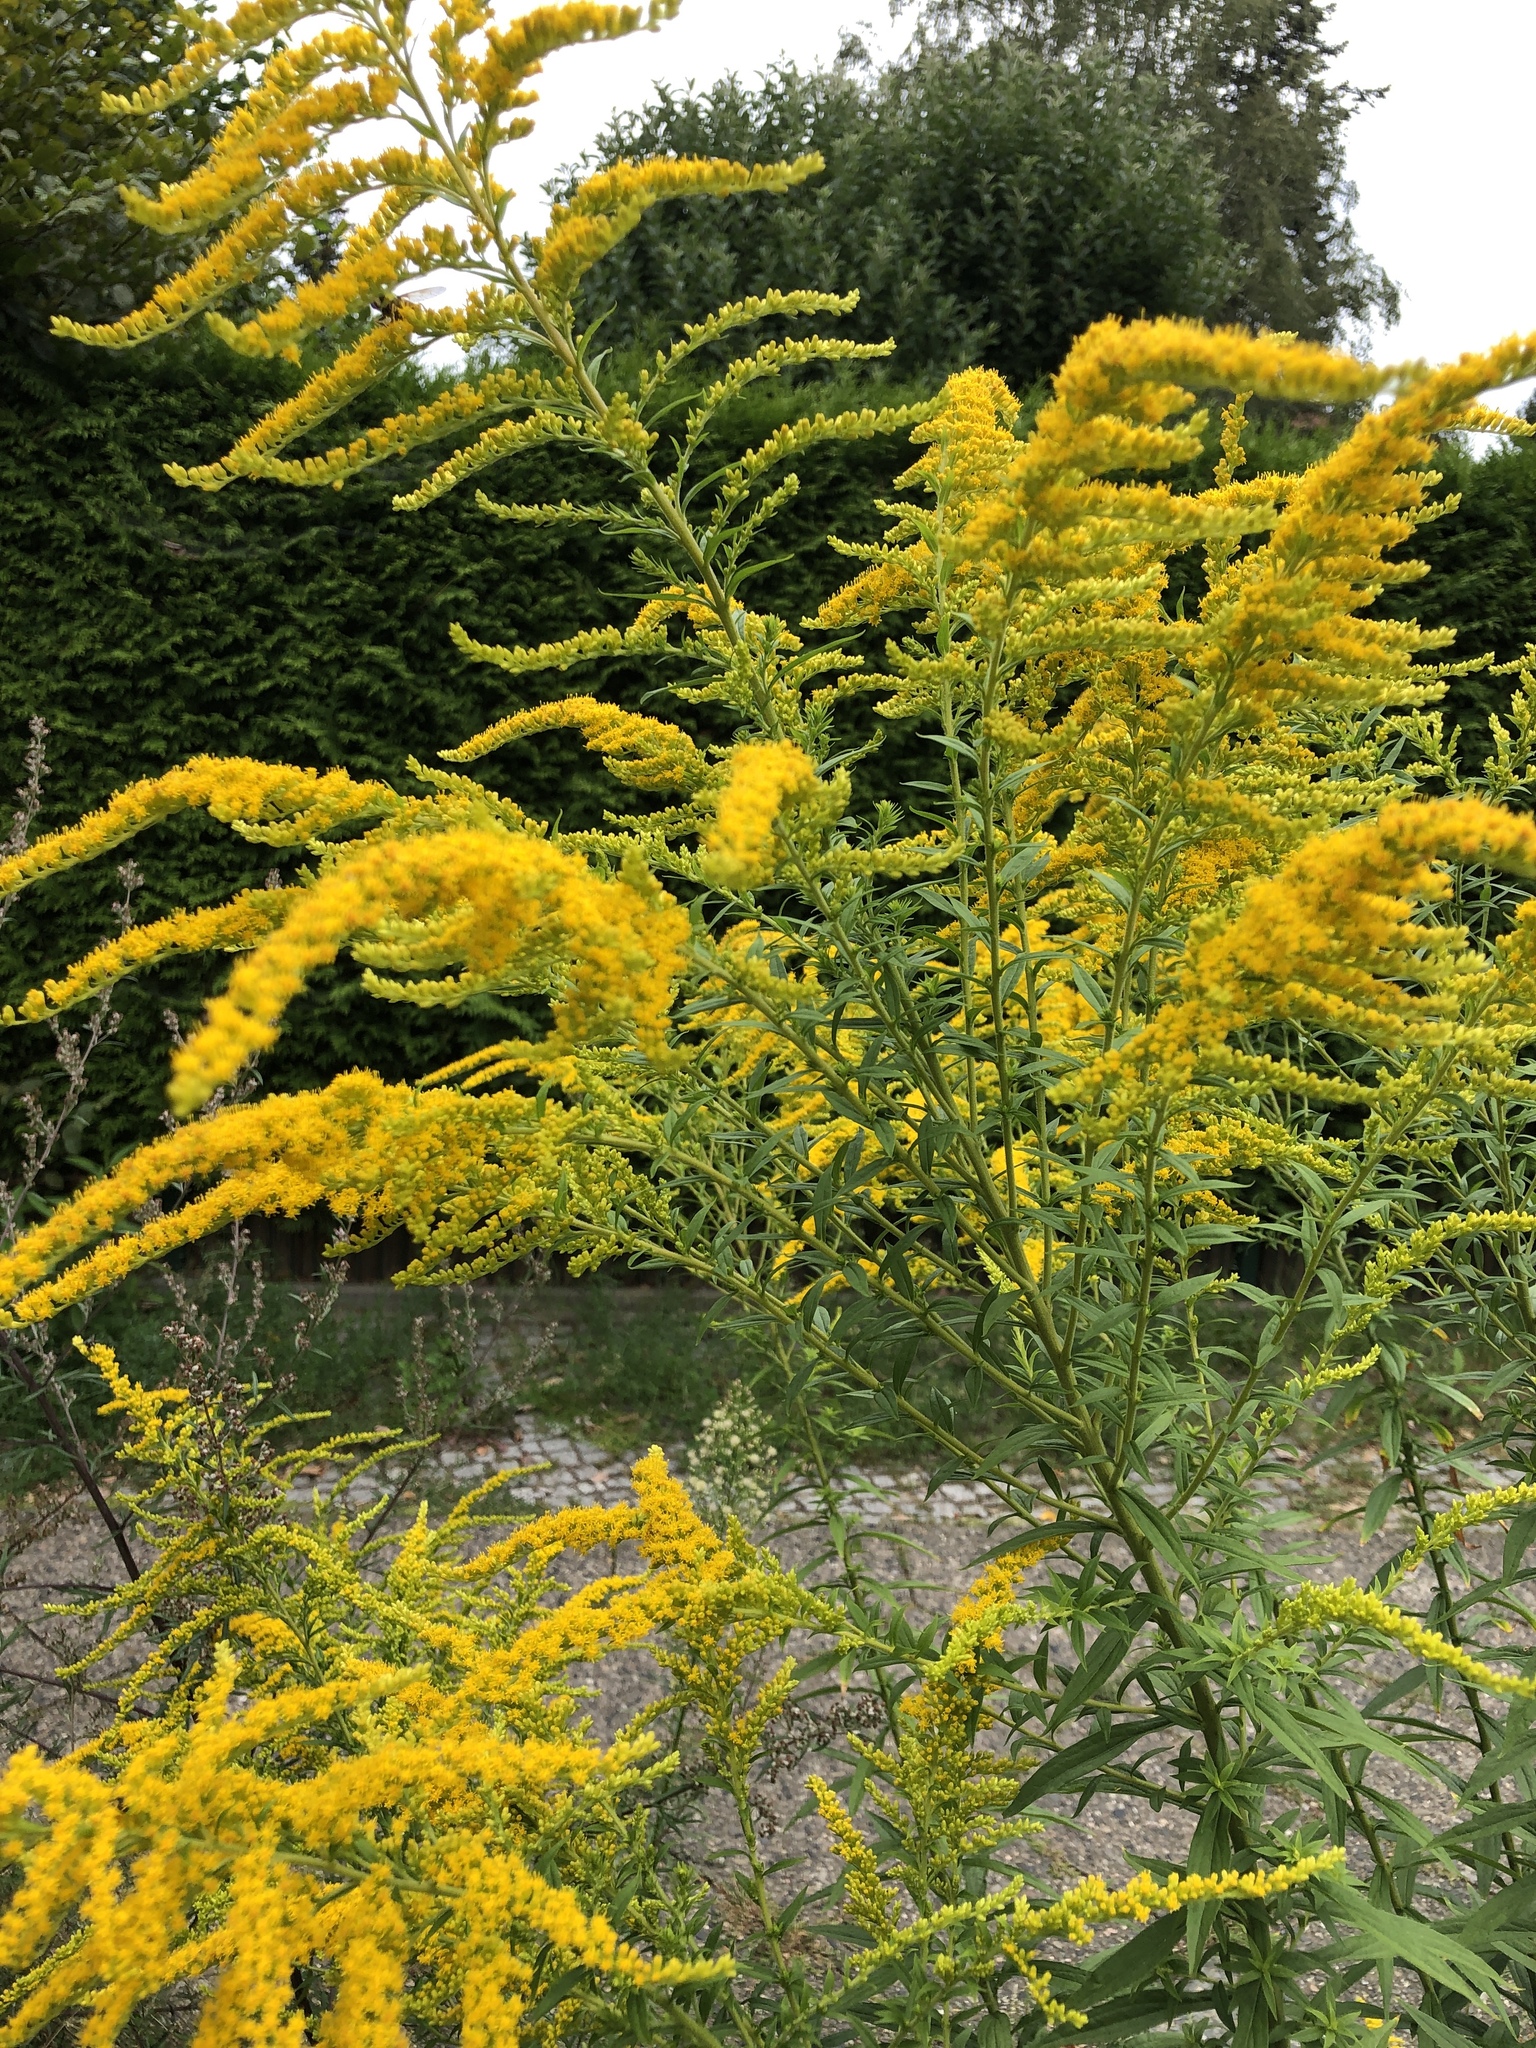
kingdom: Plantae
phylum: Tracheophyta
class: Magnoliopsida
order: Asterales
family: Asteraceae
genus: Solidago
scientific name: Solidago canadensis
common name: Canada goldenrod
